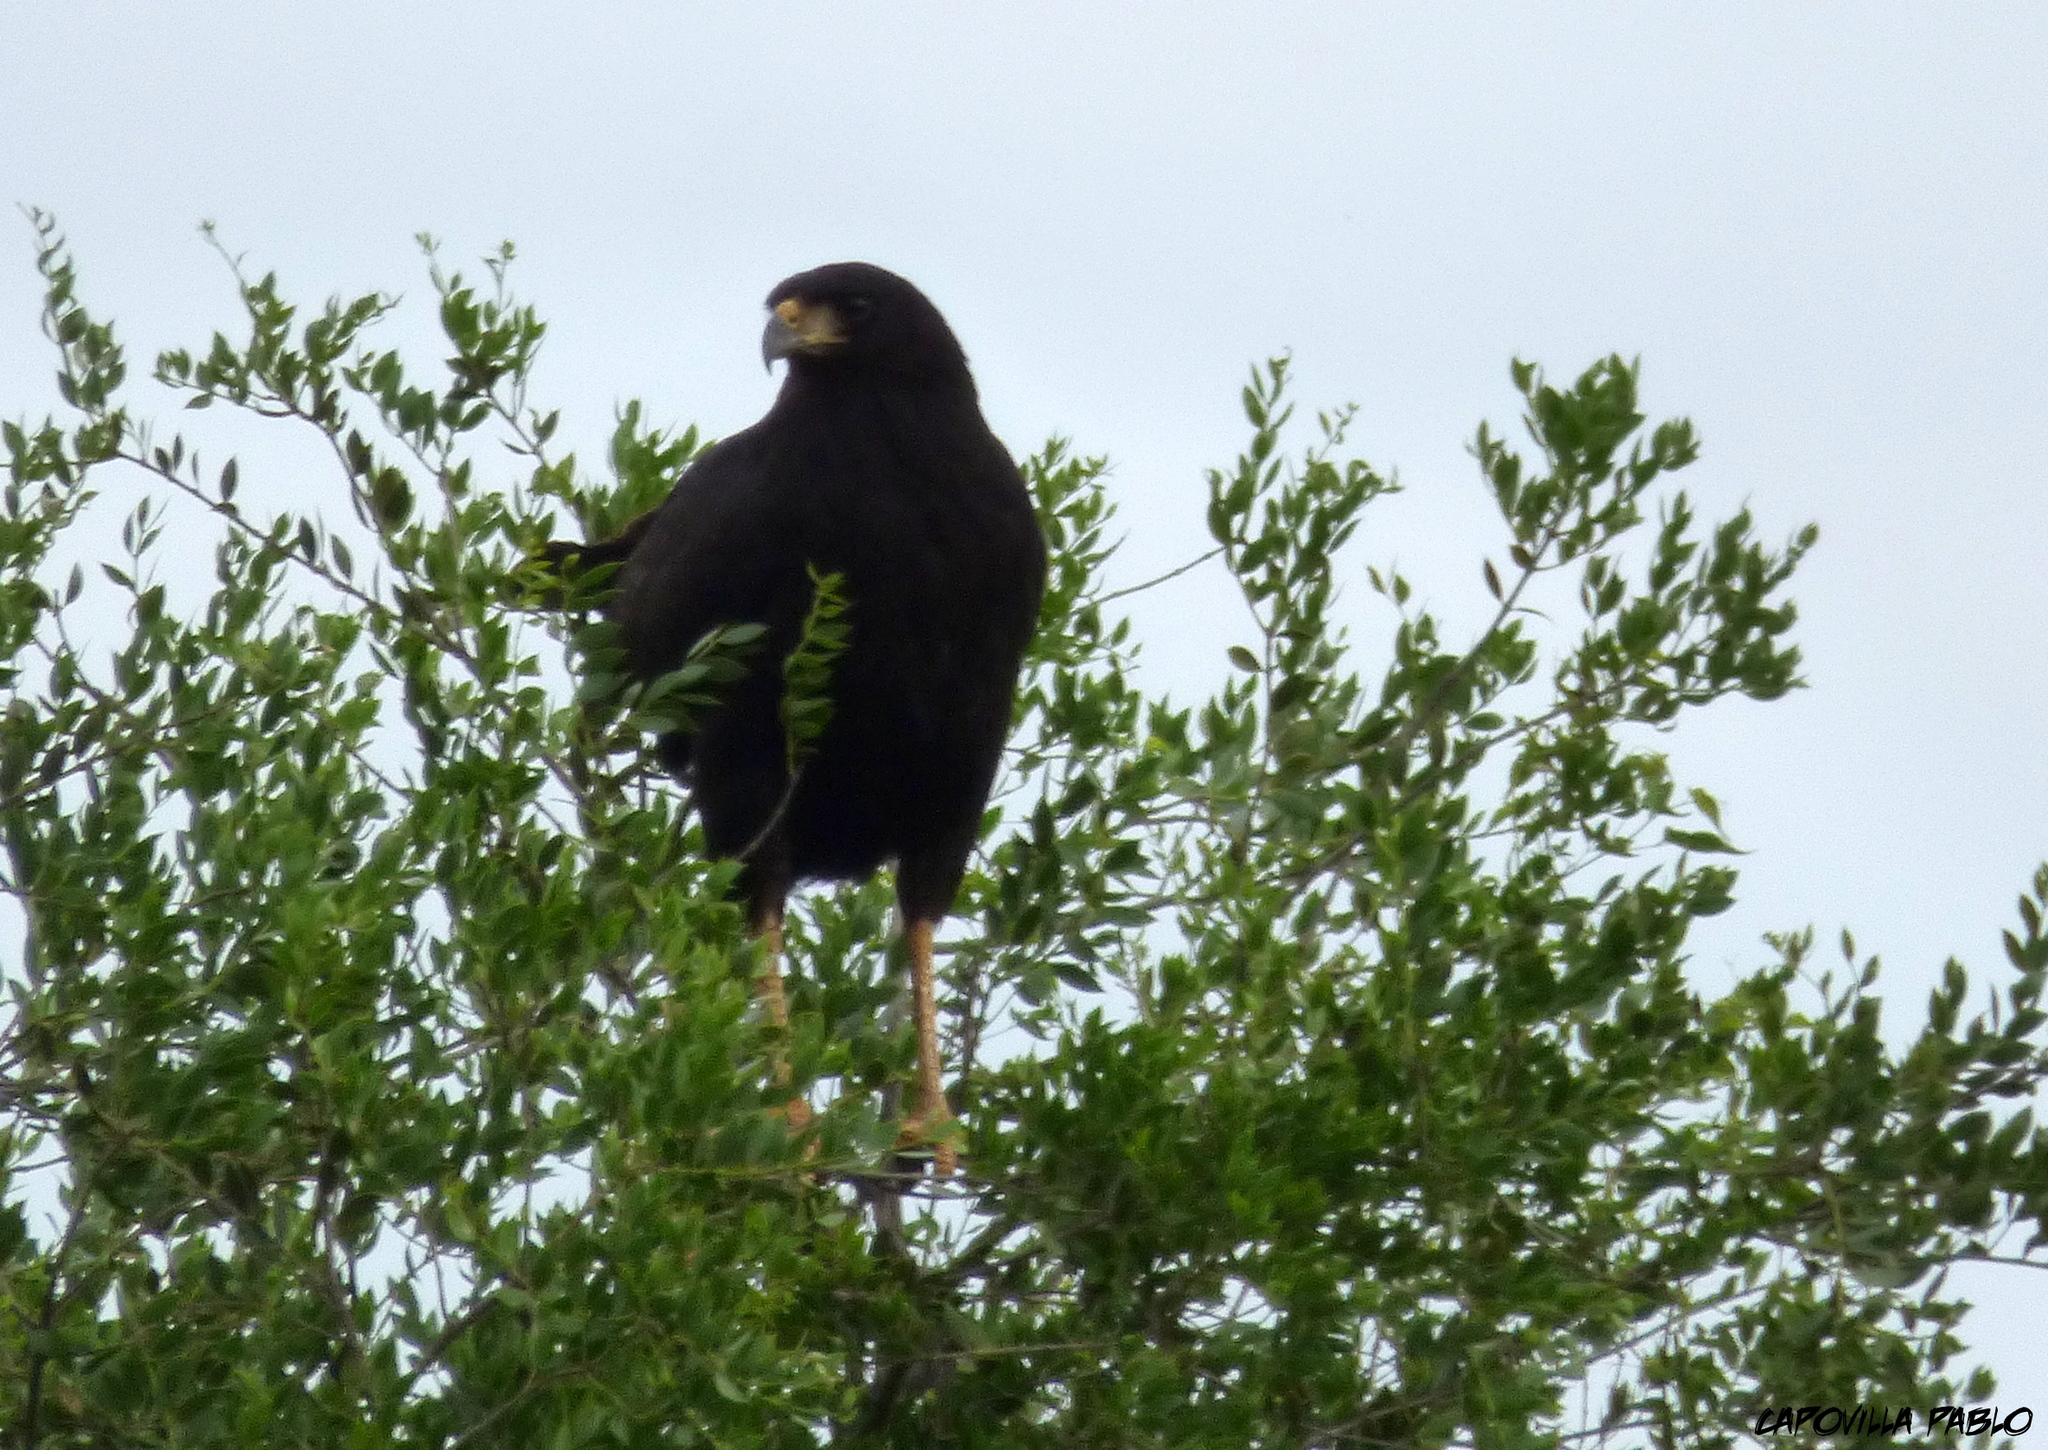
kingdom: Animalia
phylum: Chordata
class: Aves
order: Accipitriformes
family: Accipitridae
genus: Buteogallus
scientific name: Buteogallus urubitinga
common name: Great black hawk
